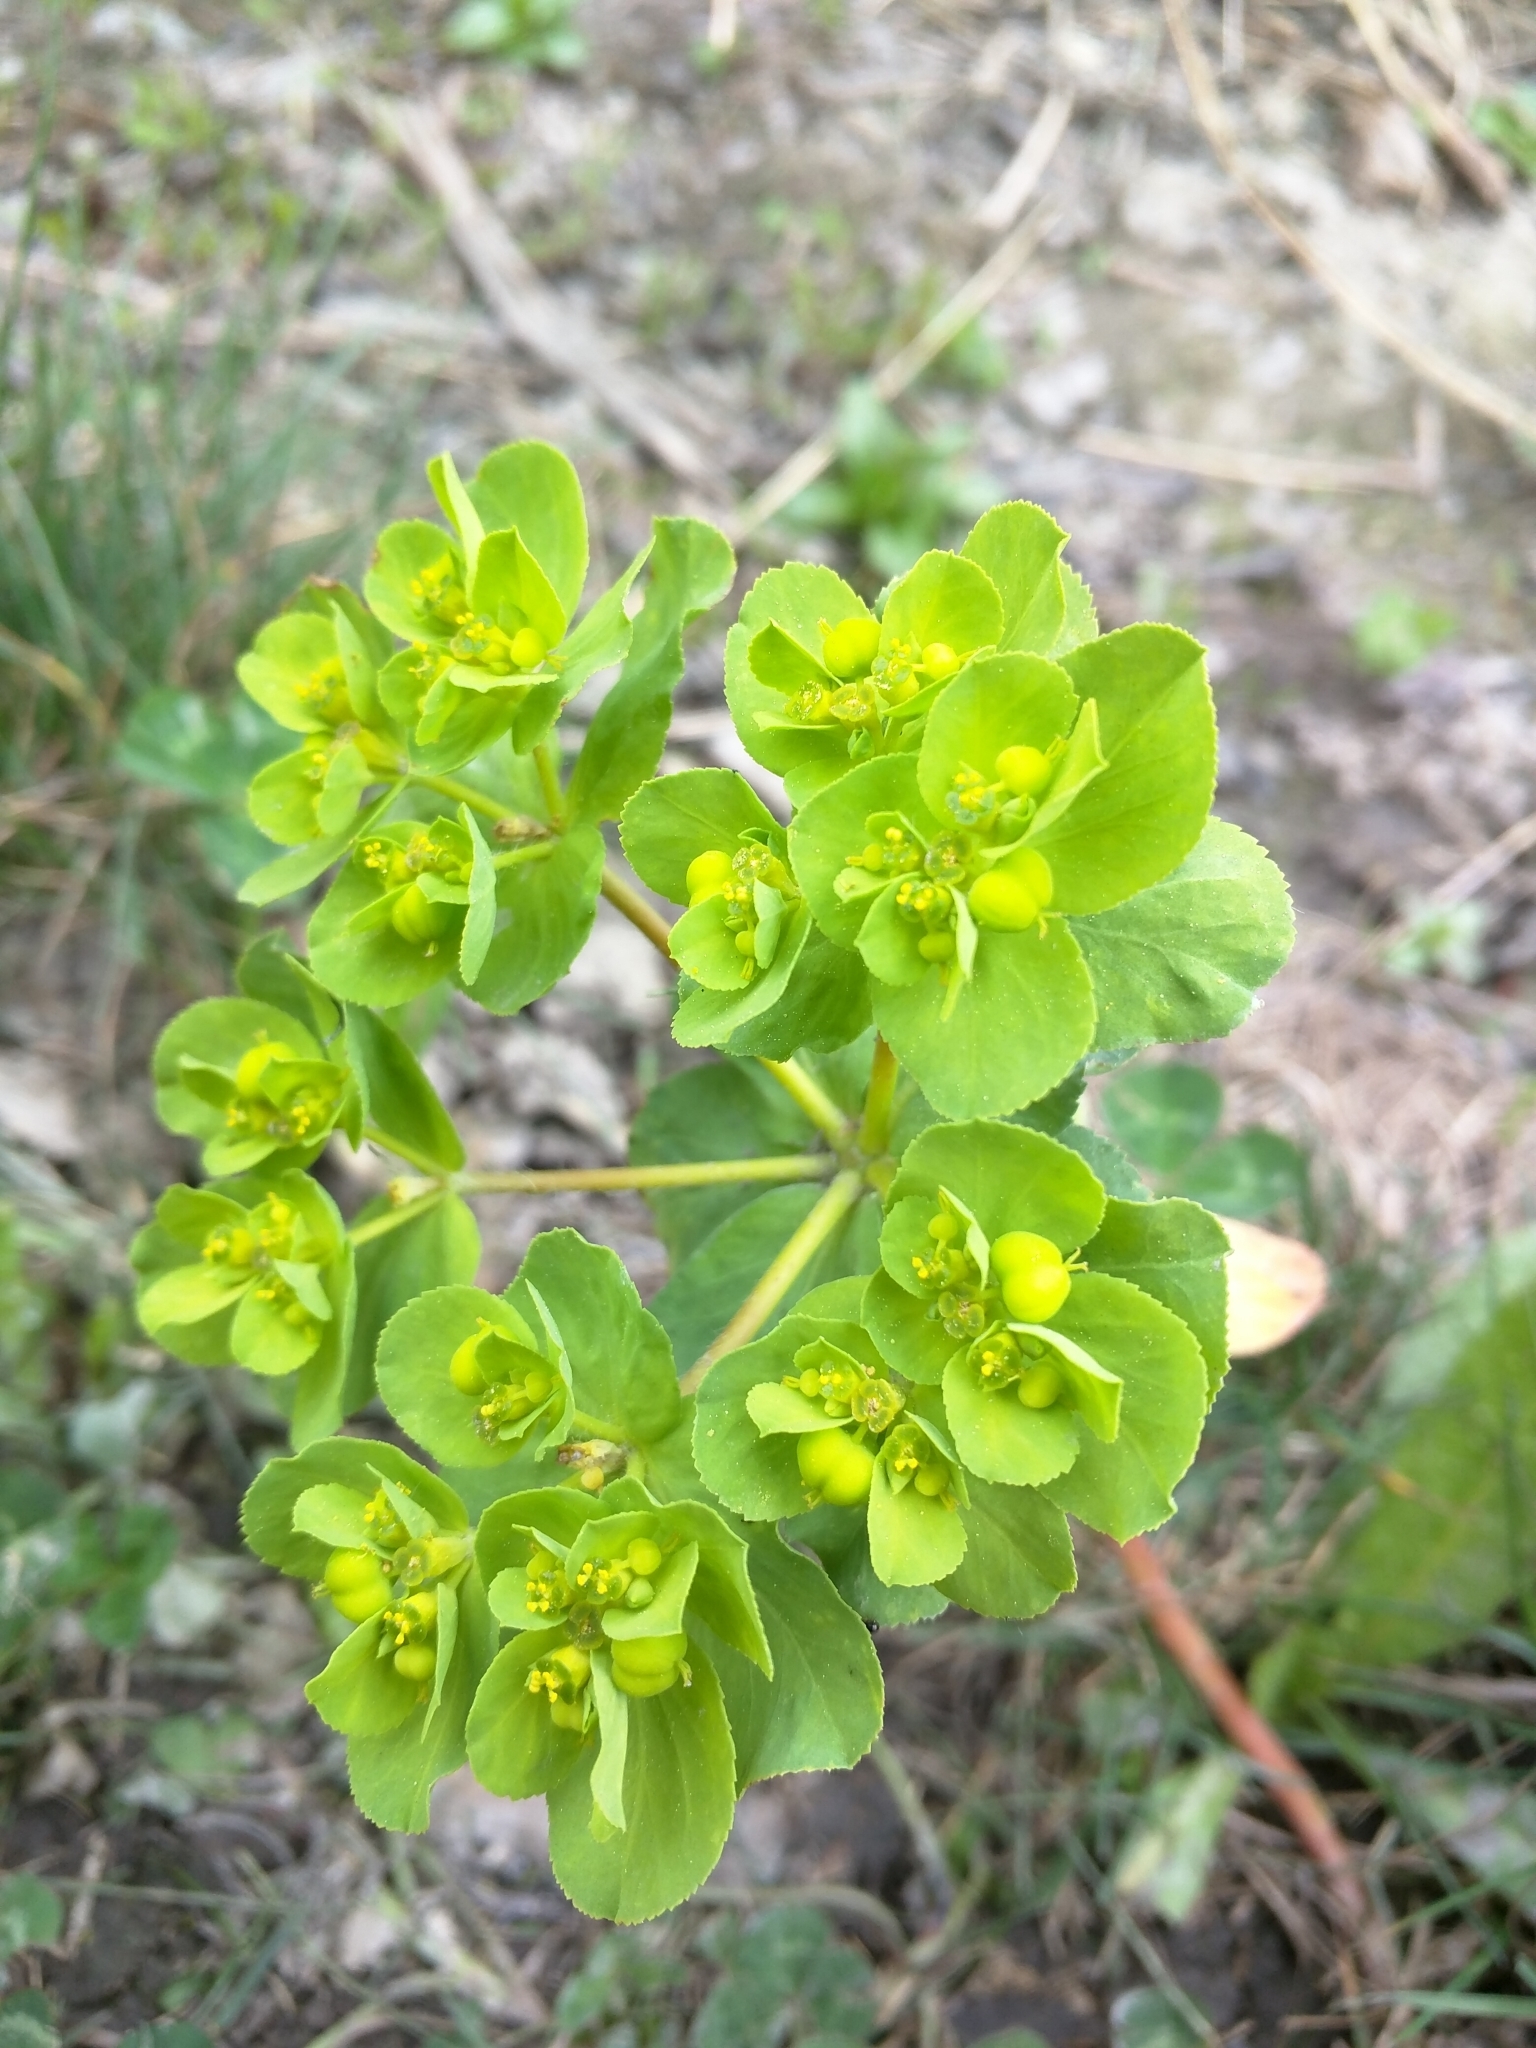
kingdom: Plantae
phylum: Tracheophyta
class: Magnoliopsida
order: Malpighiales
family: Euphorbiaceae
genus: Euphorbia
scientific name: Euphorbia helioscopia
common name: Sun spurge
